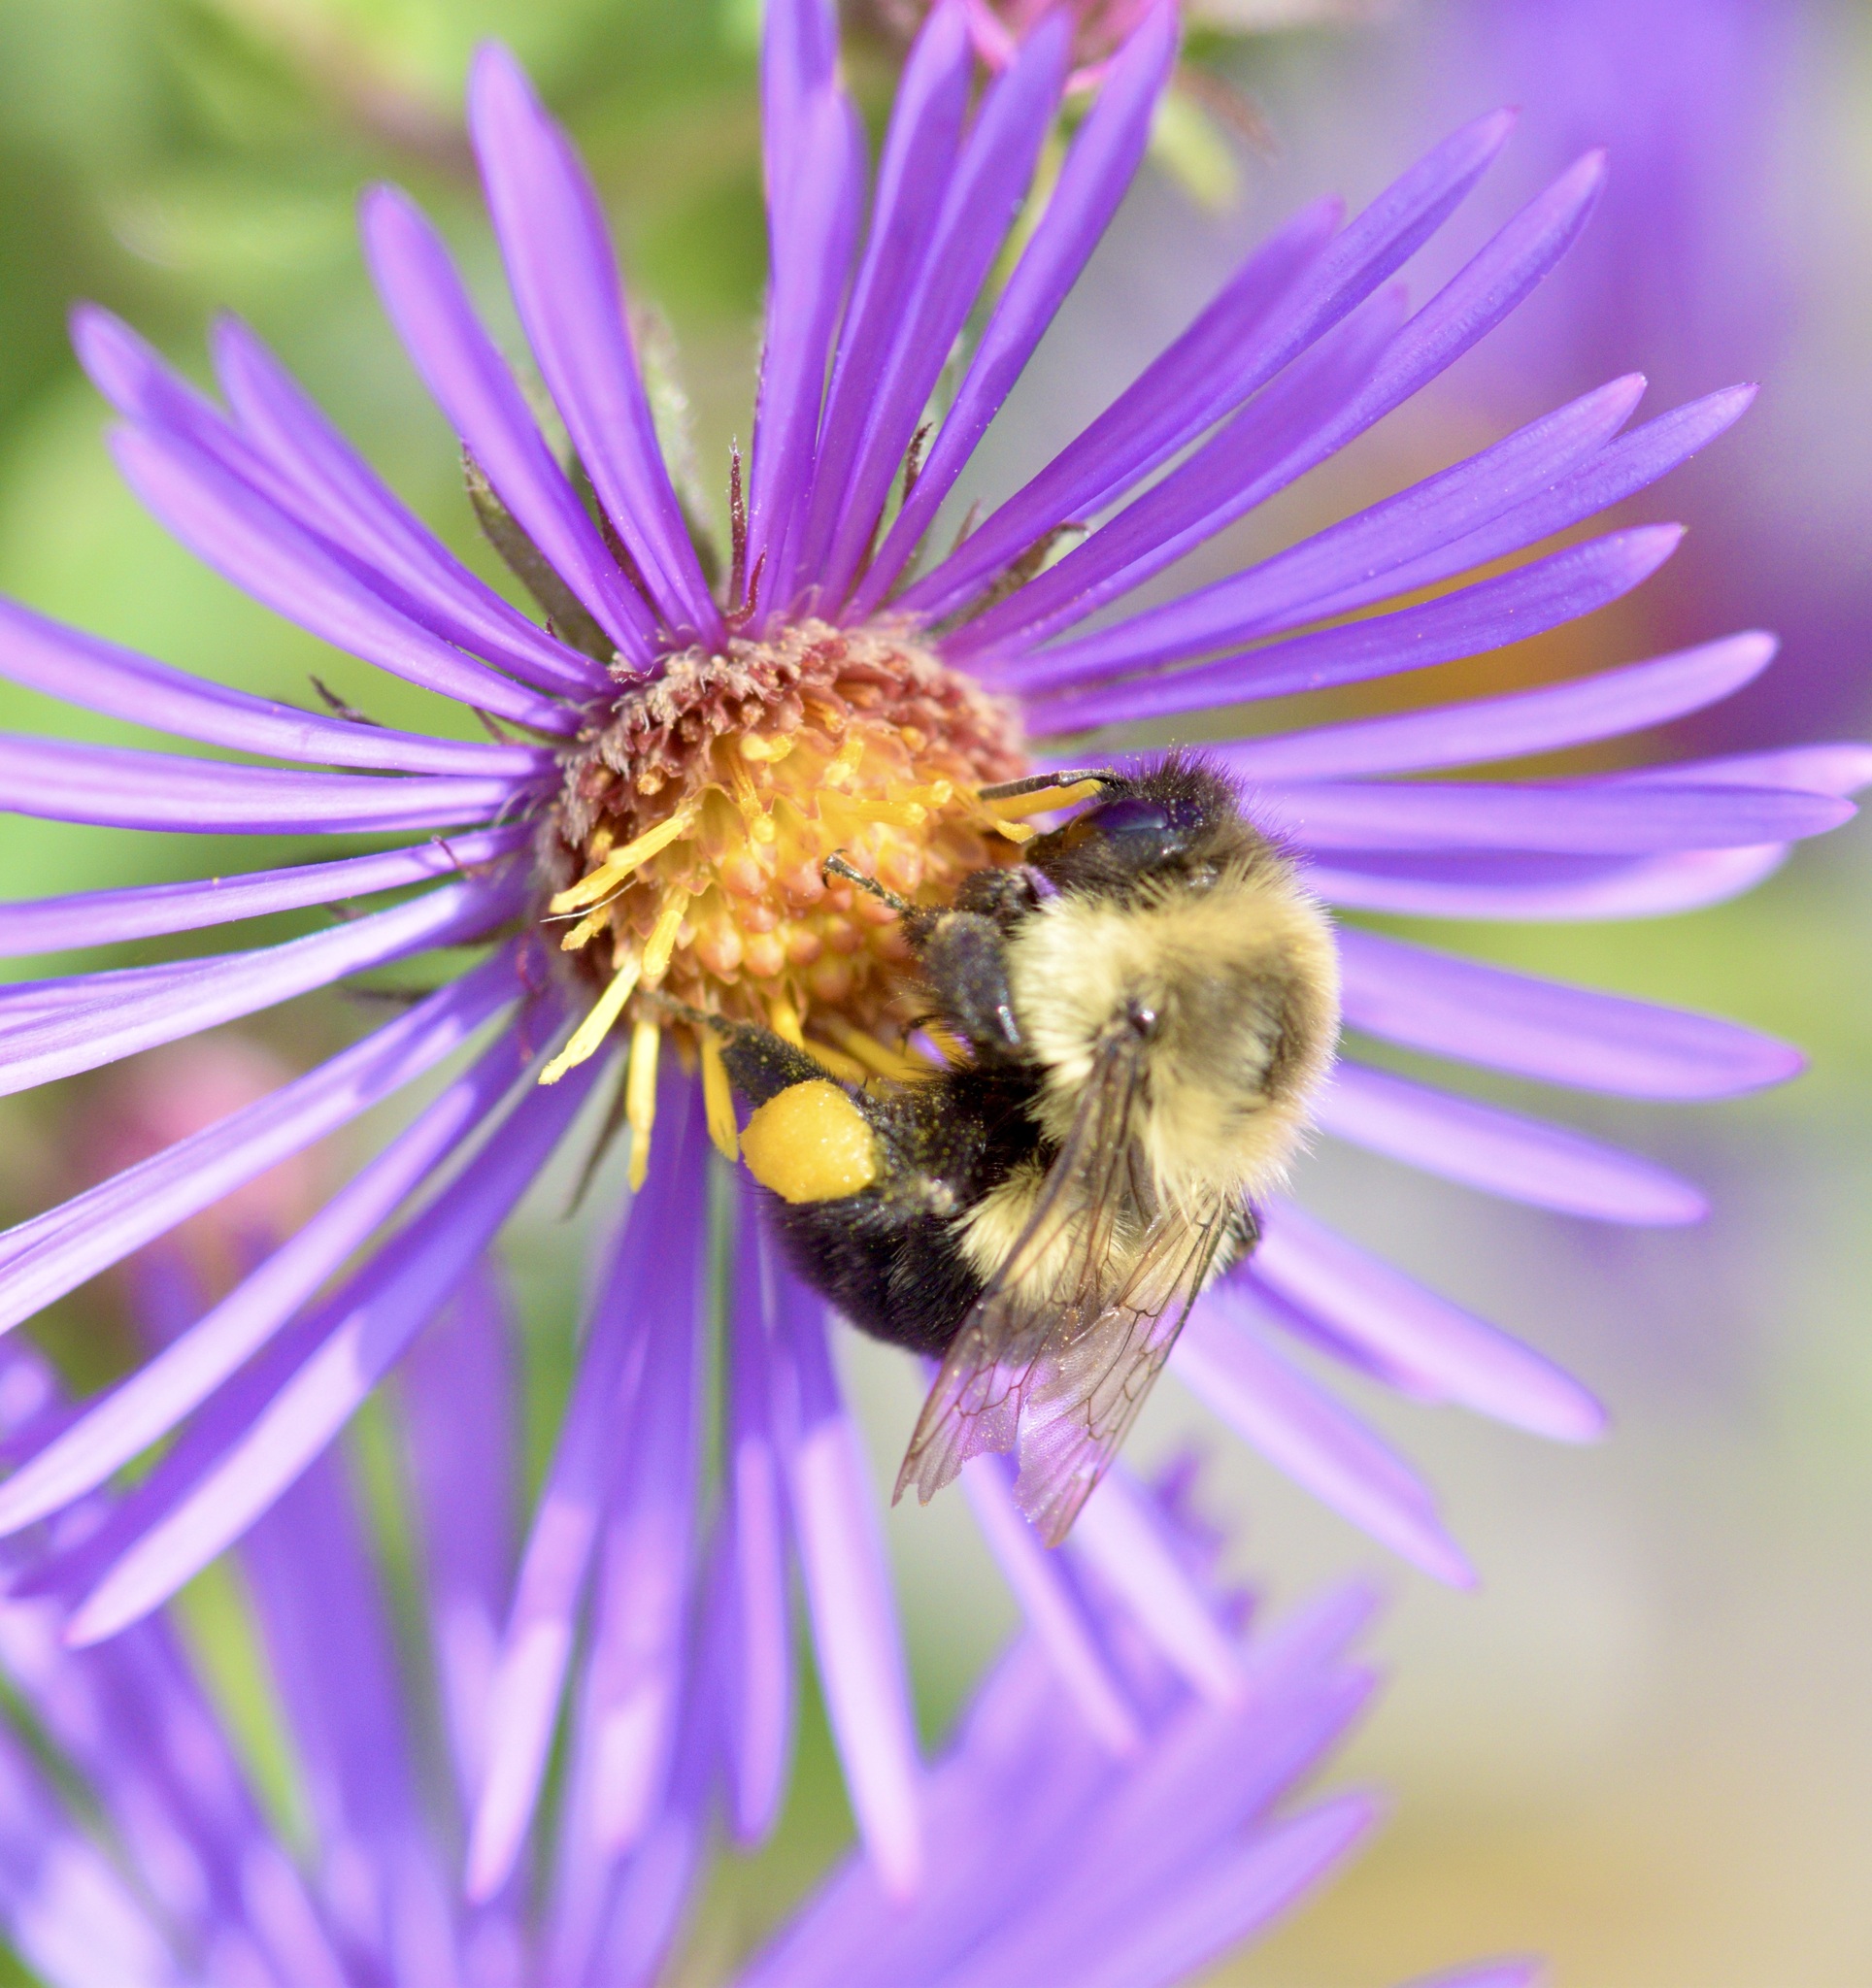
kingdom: Animalia
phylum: Arthropoda
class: Insecta
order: Hymenoptera
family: Apidae
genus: Bombus
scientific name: Bombus impatiens
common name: Common eastern bumble bee
